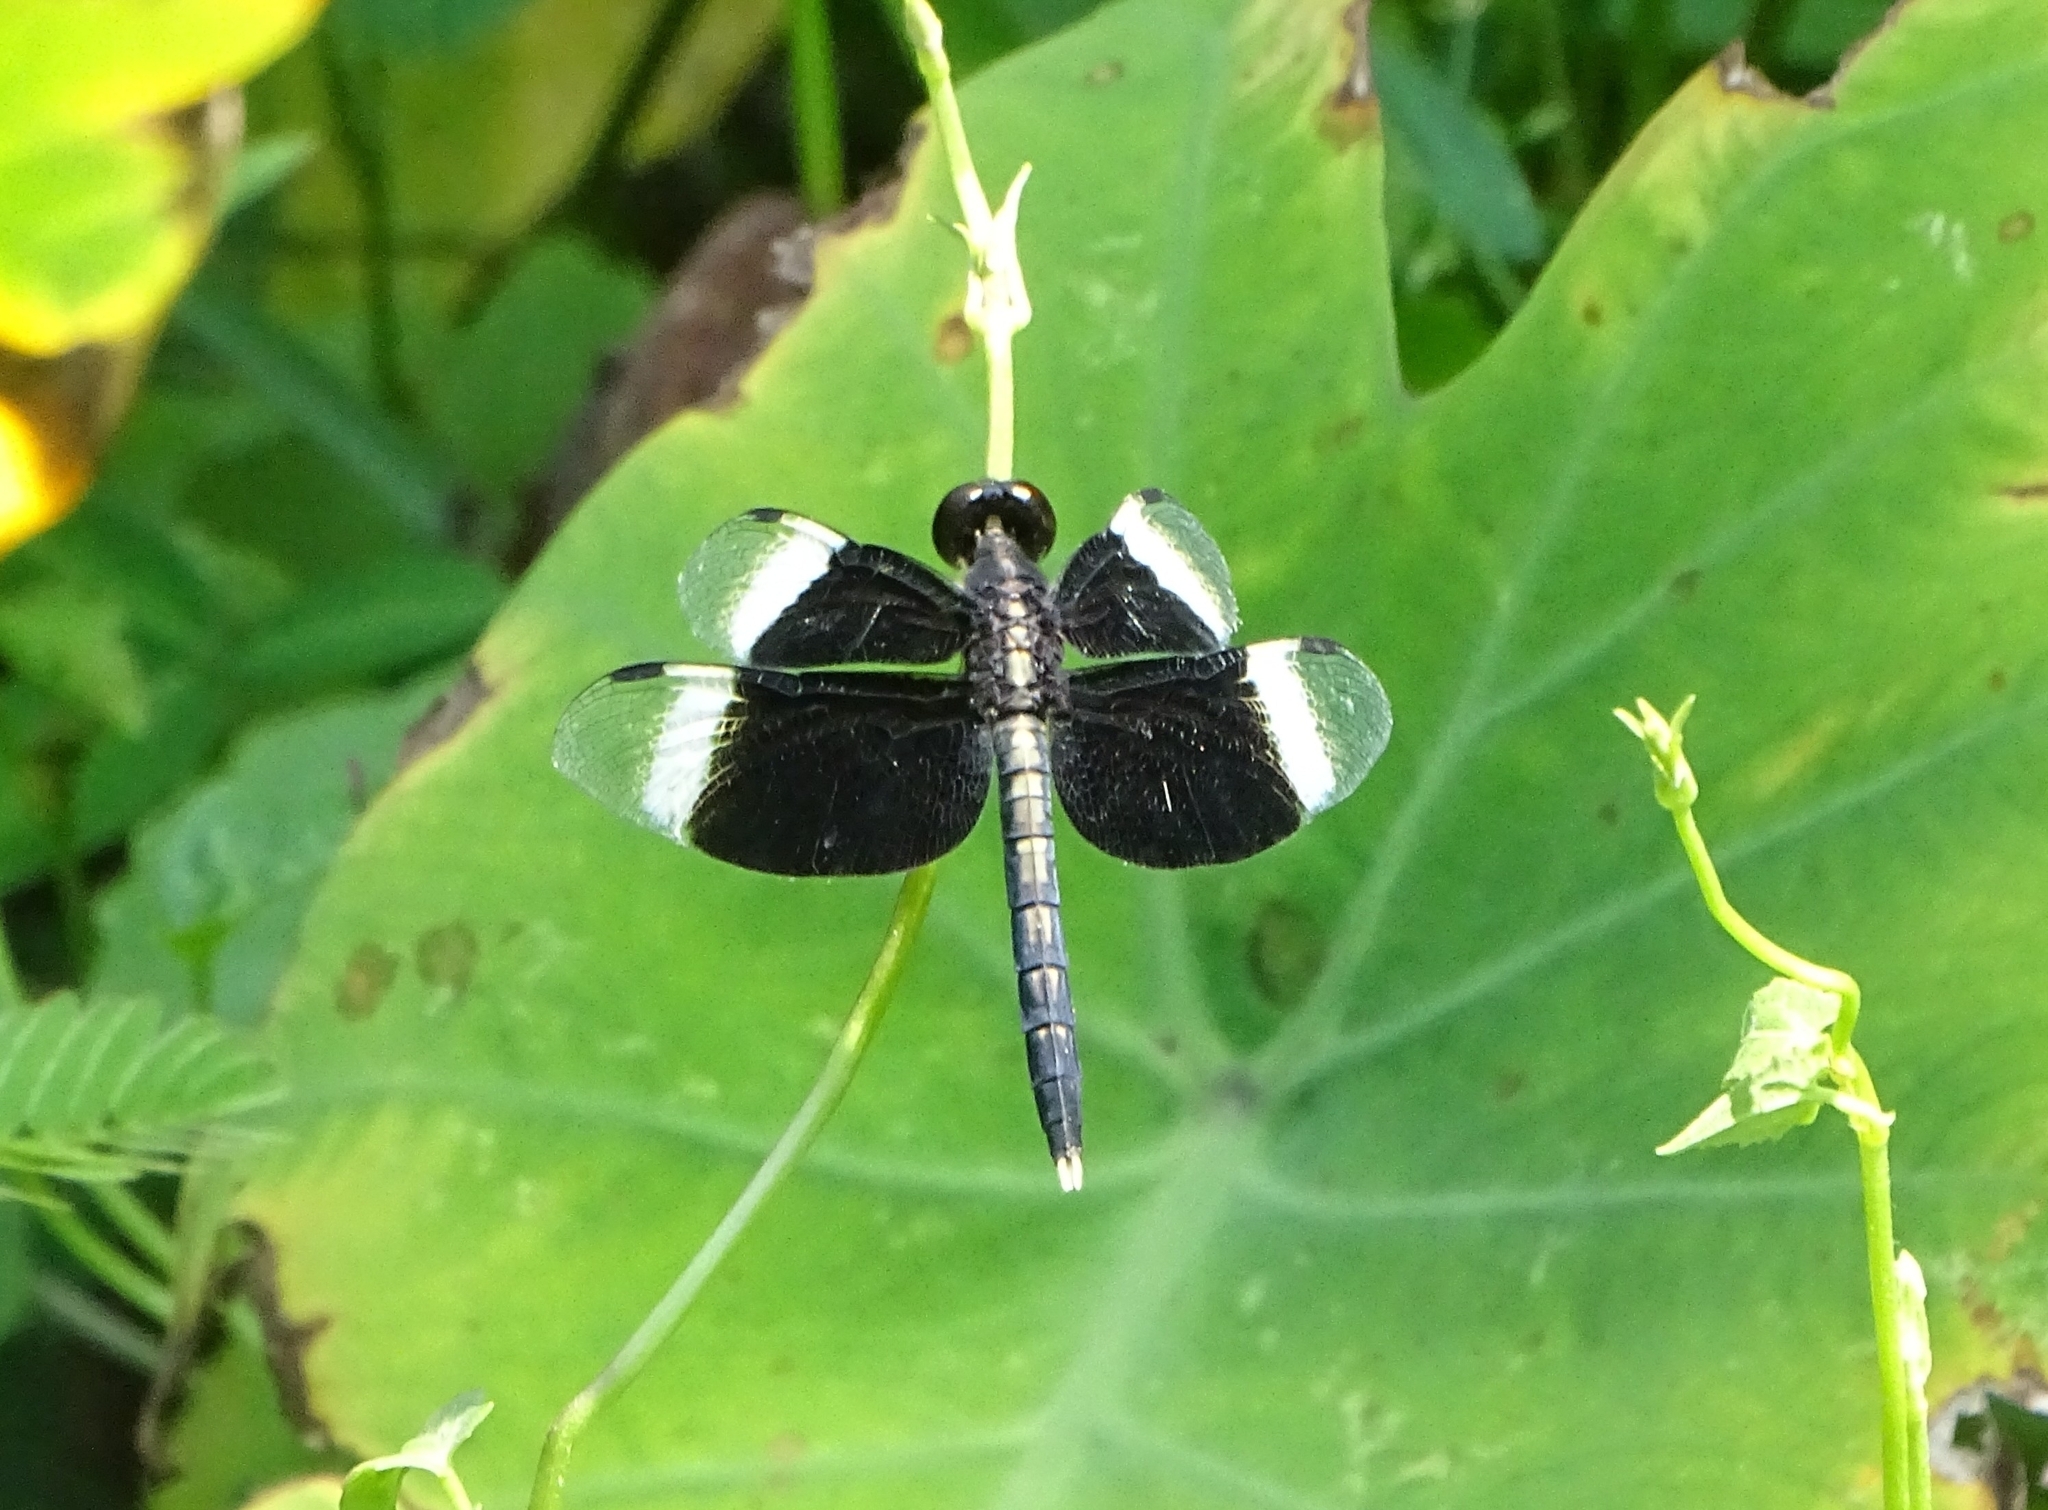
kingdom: Animalia
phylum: Arthropoda
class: Insecta
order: Odonata
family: Libellulidae
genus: Neurothemis
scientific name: Neurothemis tullia
